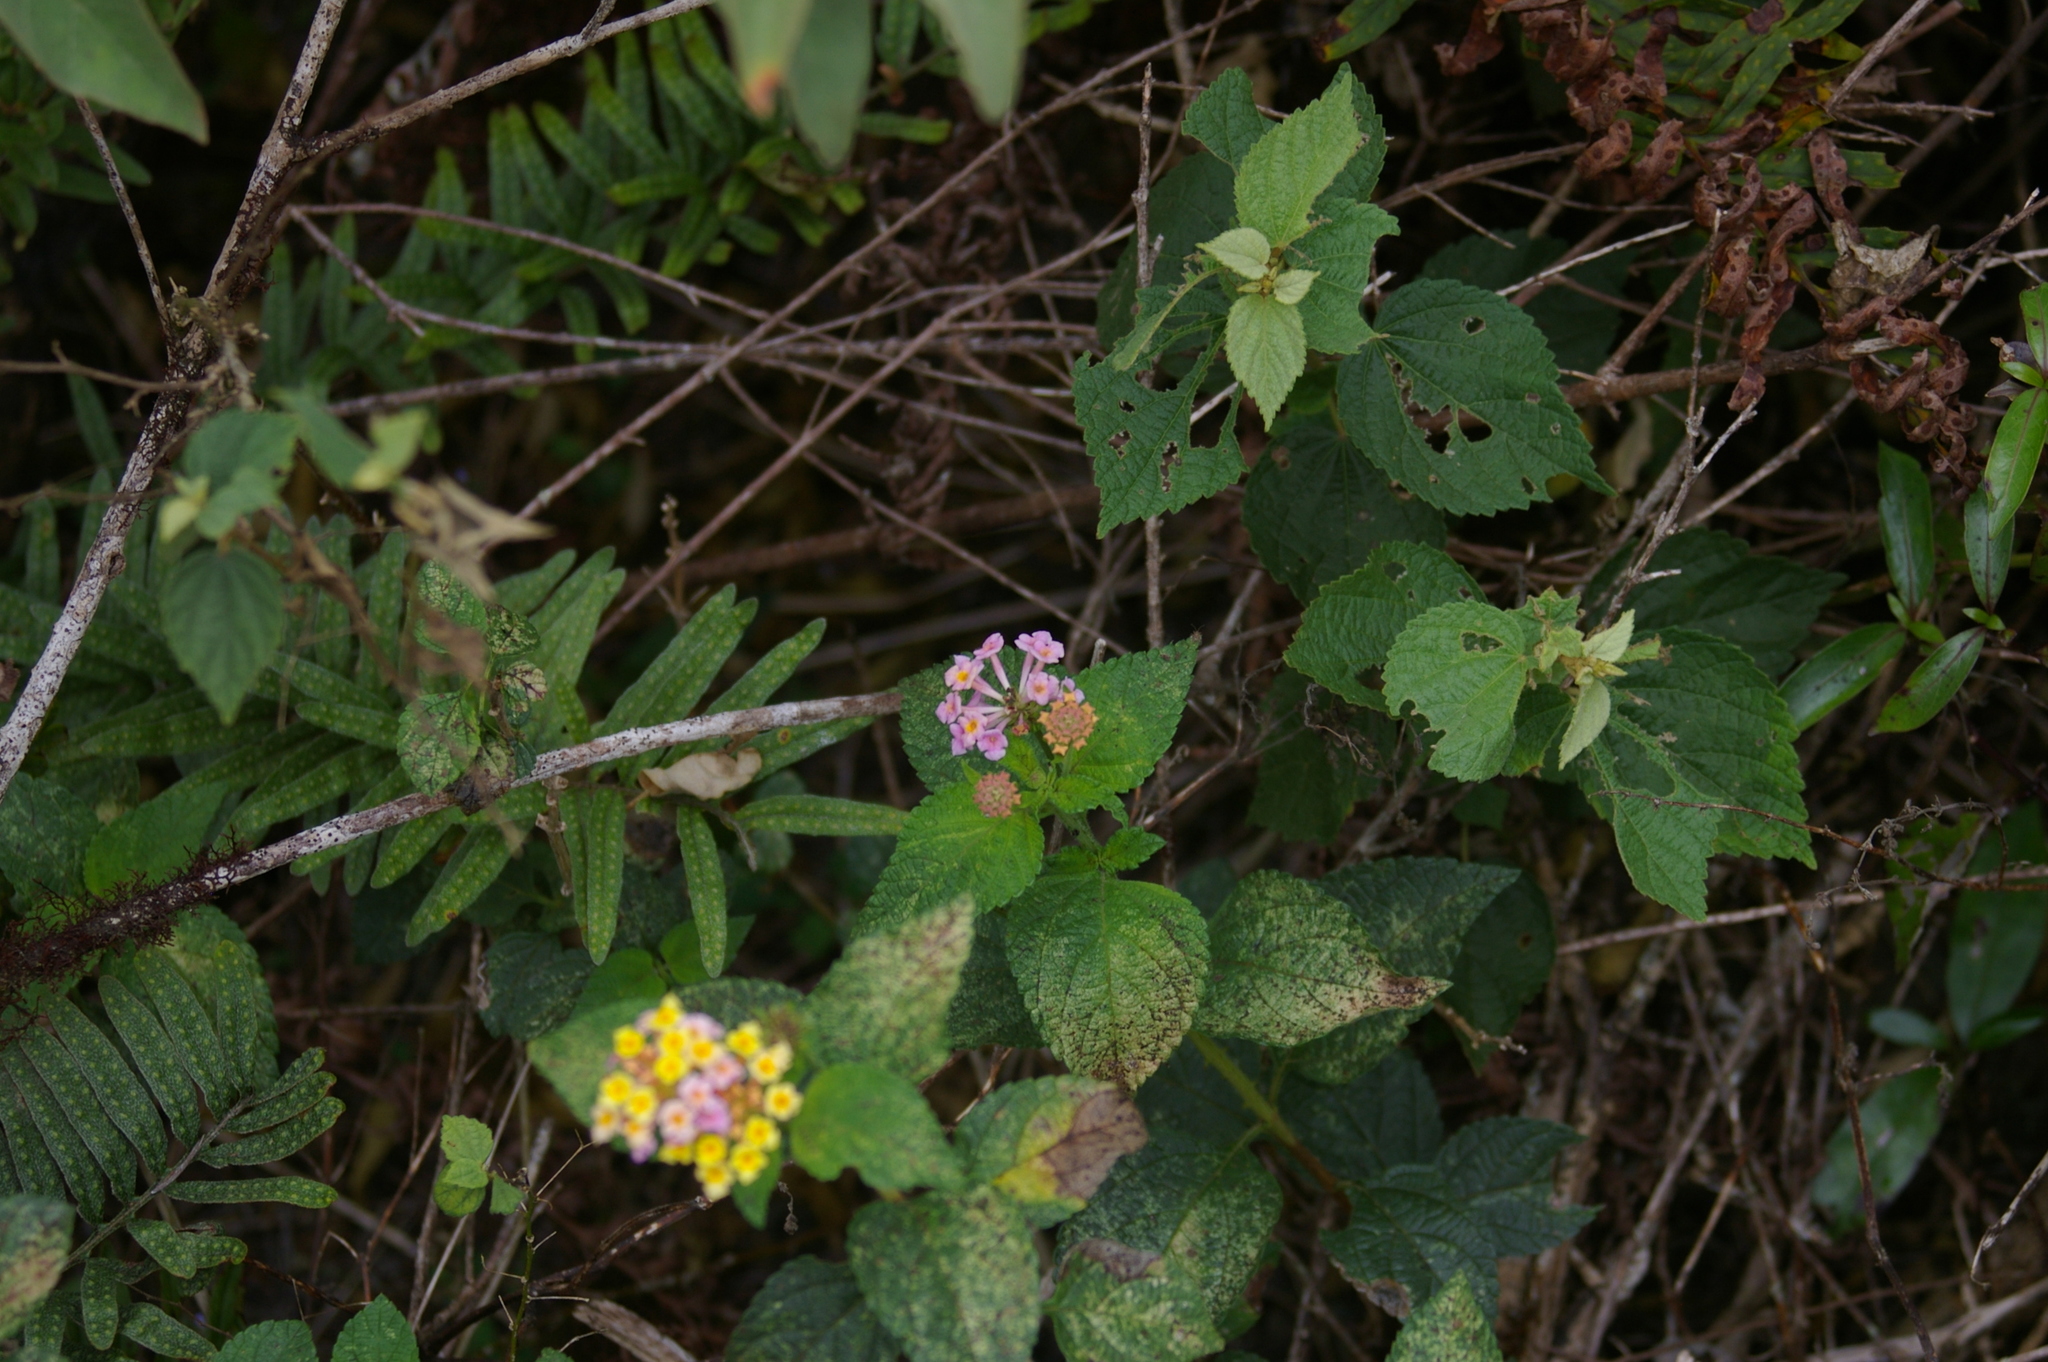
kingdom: Plantae
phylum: Tracheophyta
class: Magnoliopsida
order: Lamiales
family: Verbenaceae
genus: Lantana
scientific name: Lantana camara
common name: Lantana
